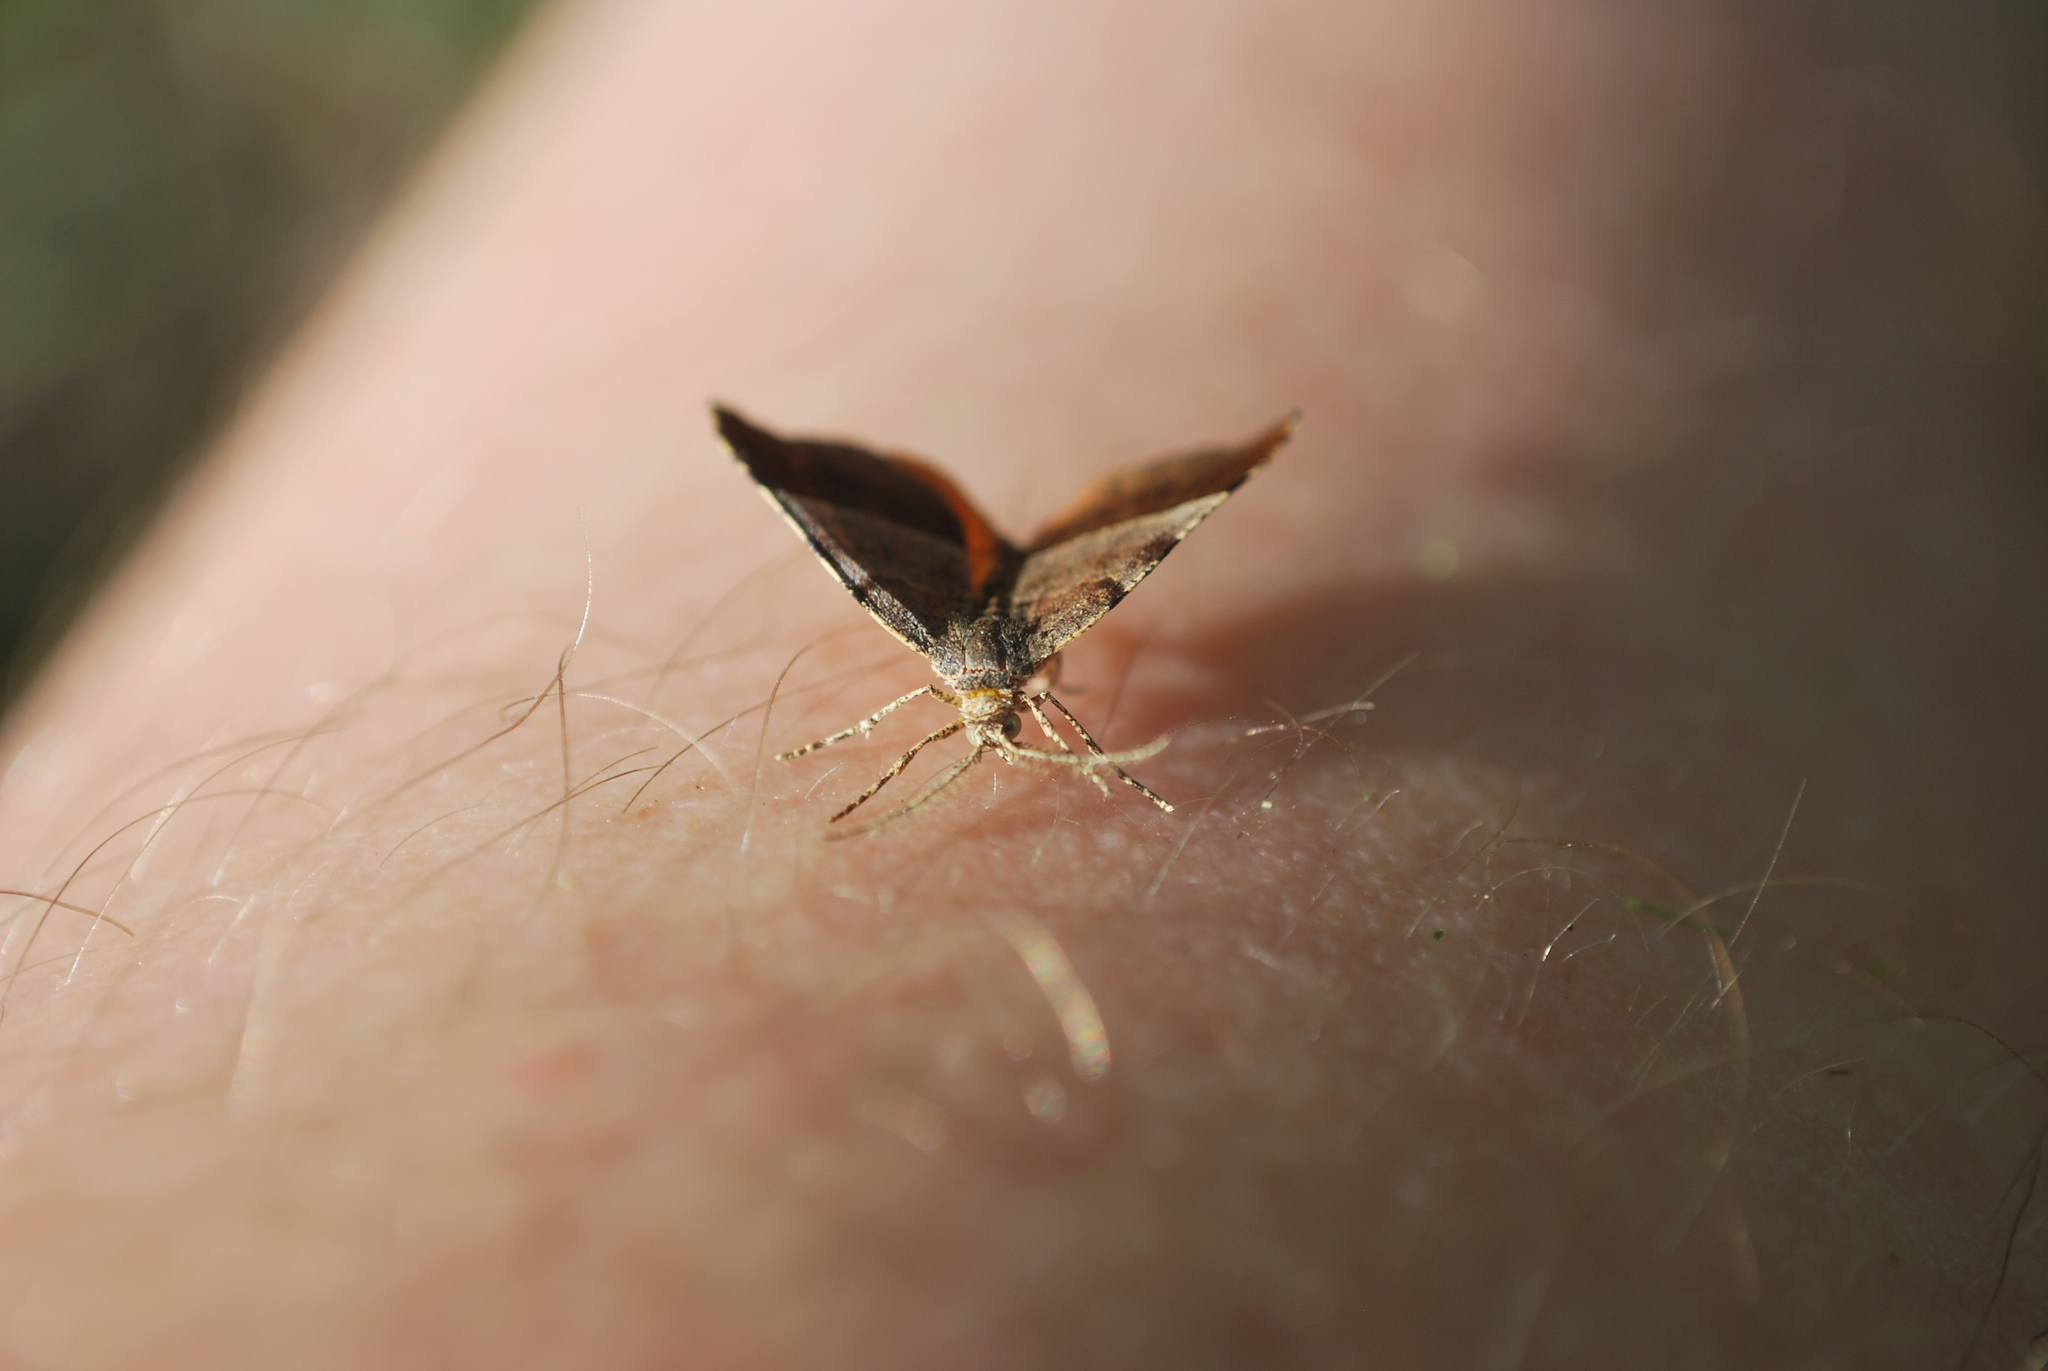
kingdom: Animalia
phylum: Arthropoda
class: Insecta
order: Lepidoptera
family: Geometridae
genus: Mellilla
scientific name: Mellilla xanthometata
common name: Orange wing moth
